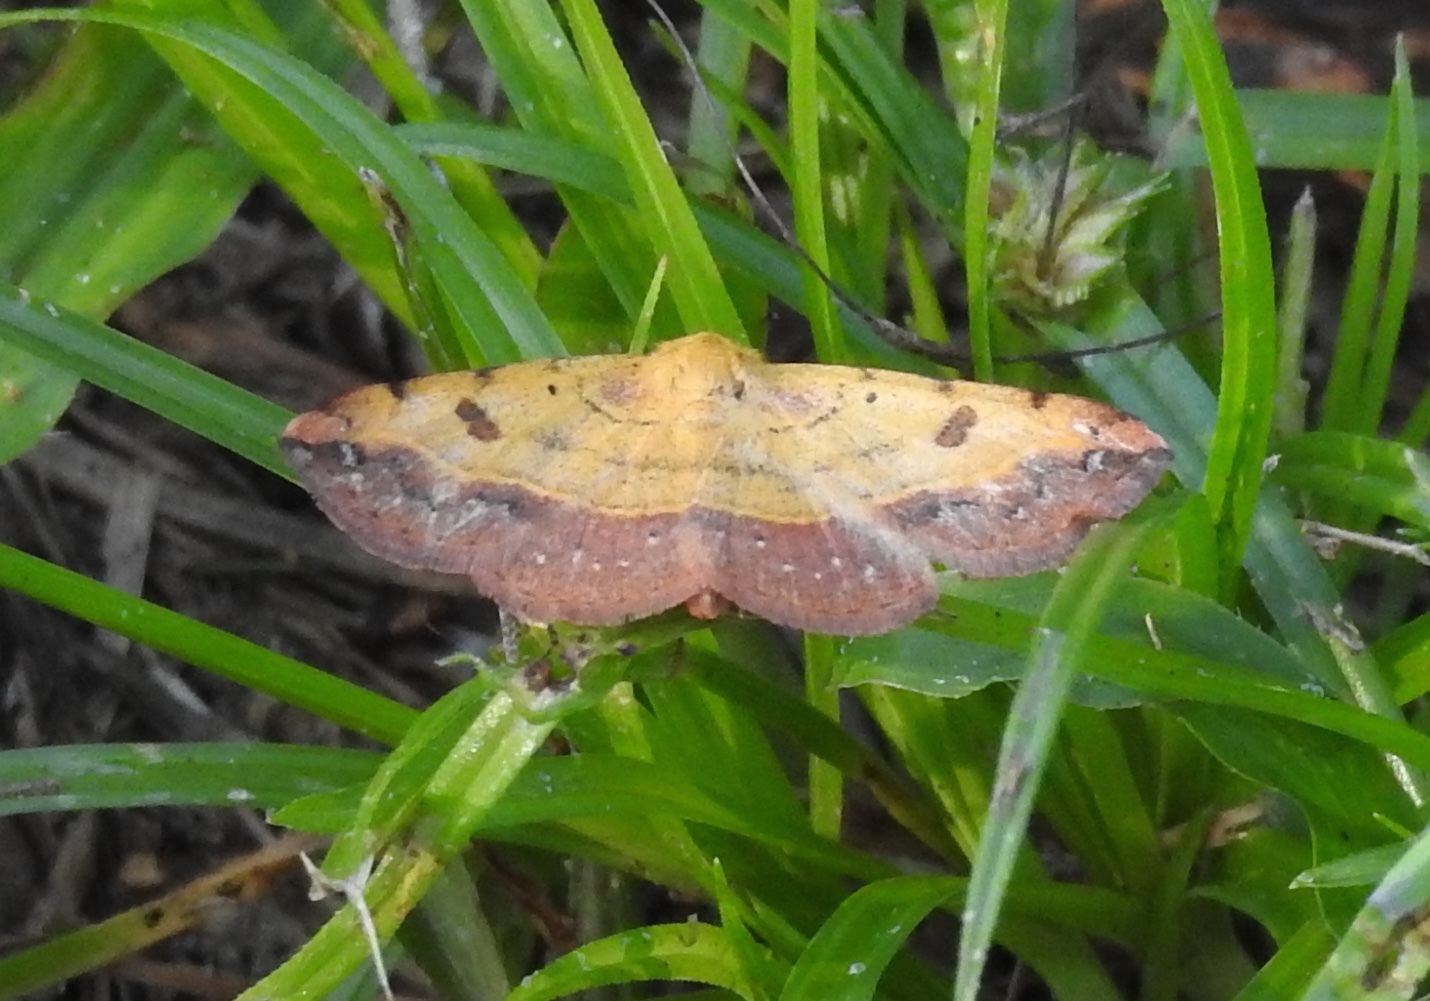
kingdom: Animalia
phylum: Arthropoda
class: Insecta
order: Lepidoptera
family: Erebidae
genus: Hemeroplanis
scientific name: Hemeroplanis scopulepes
